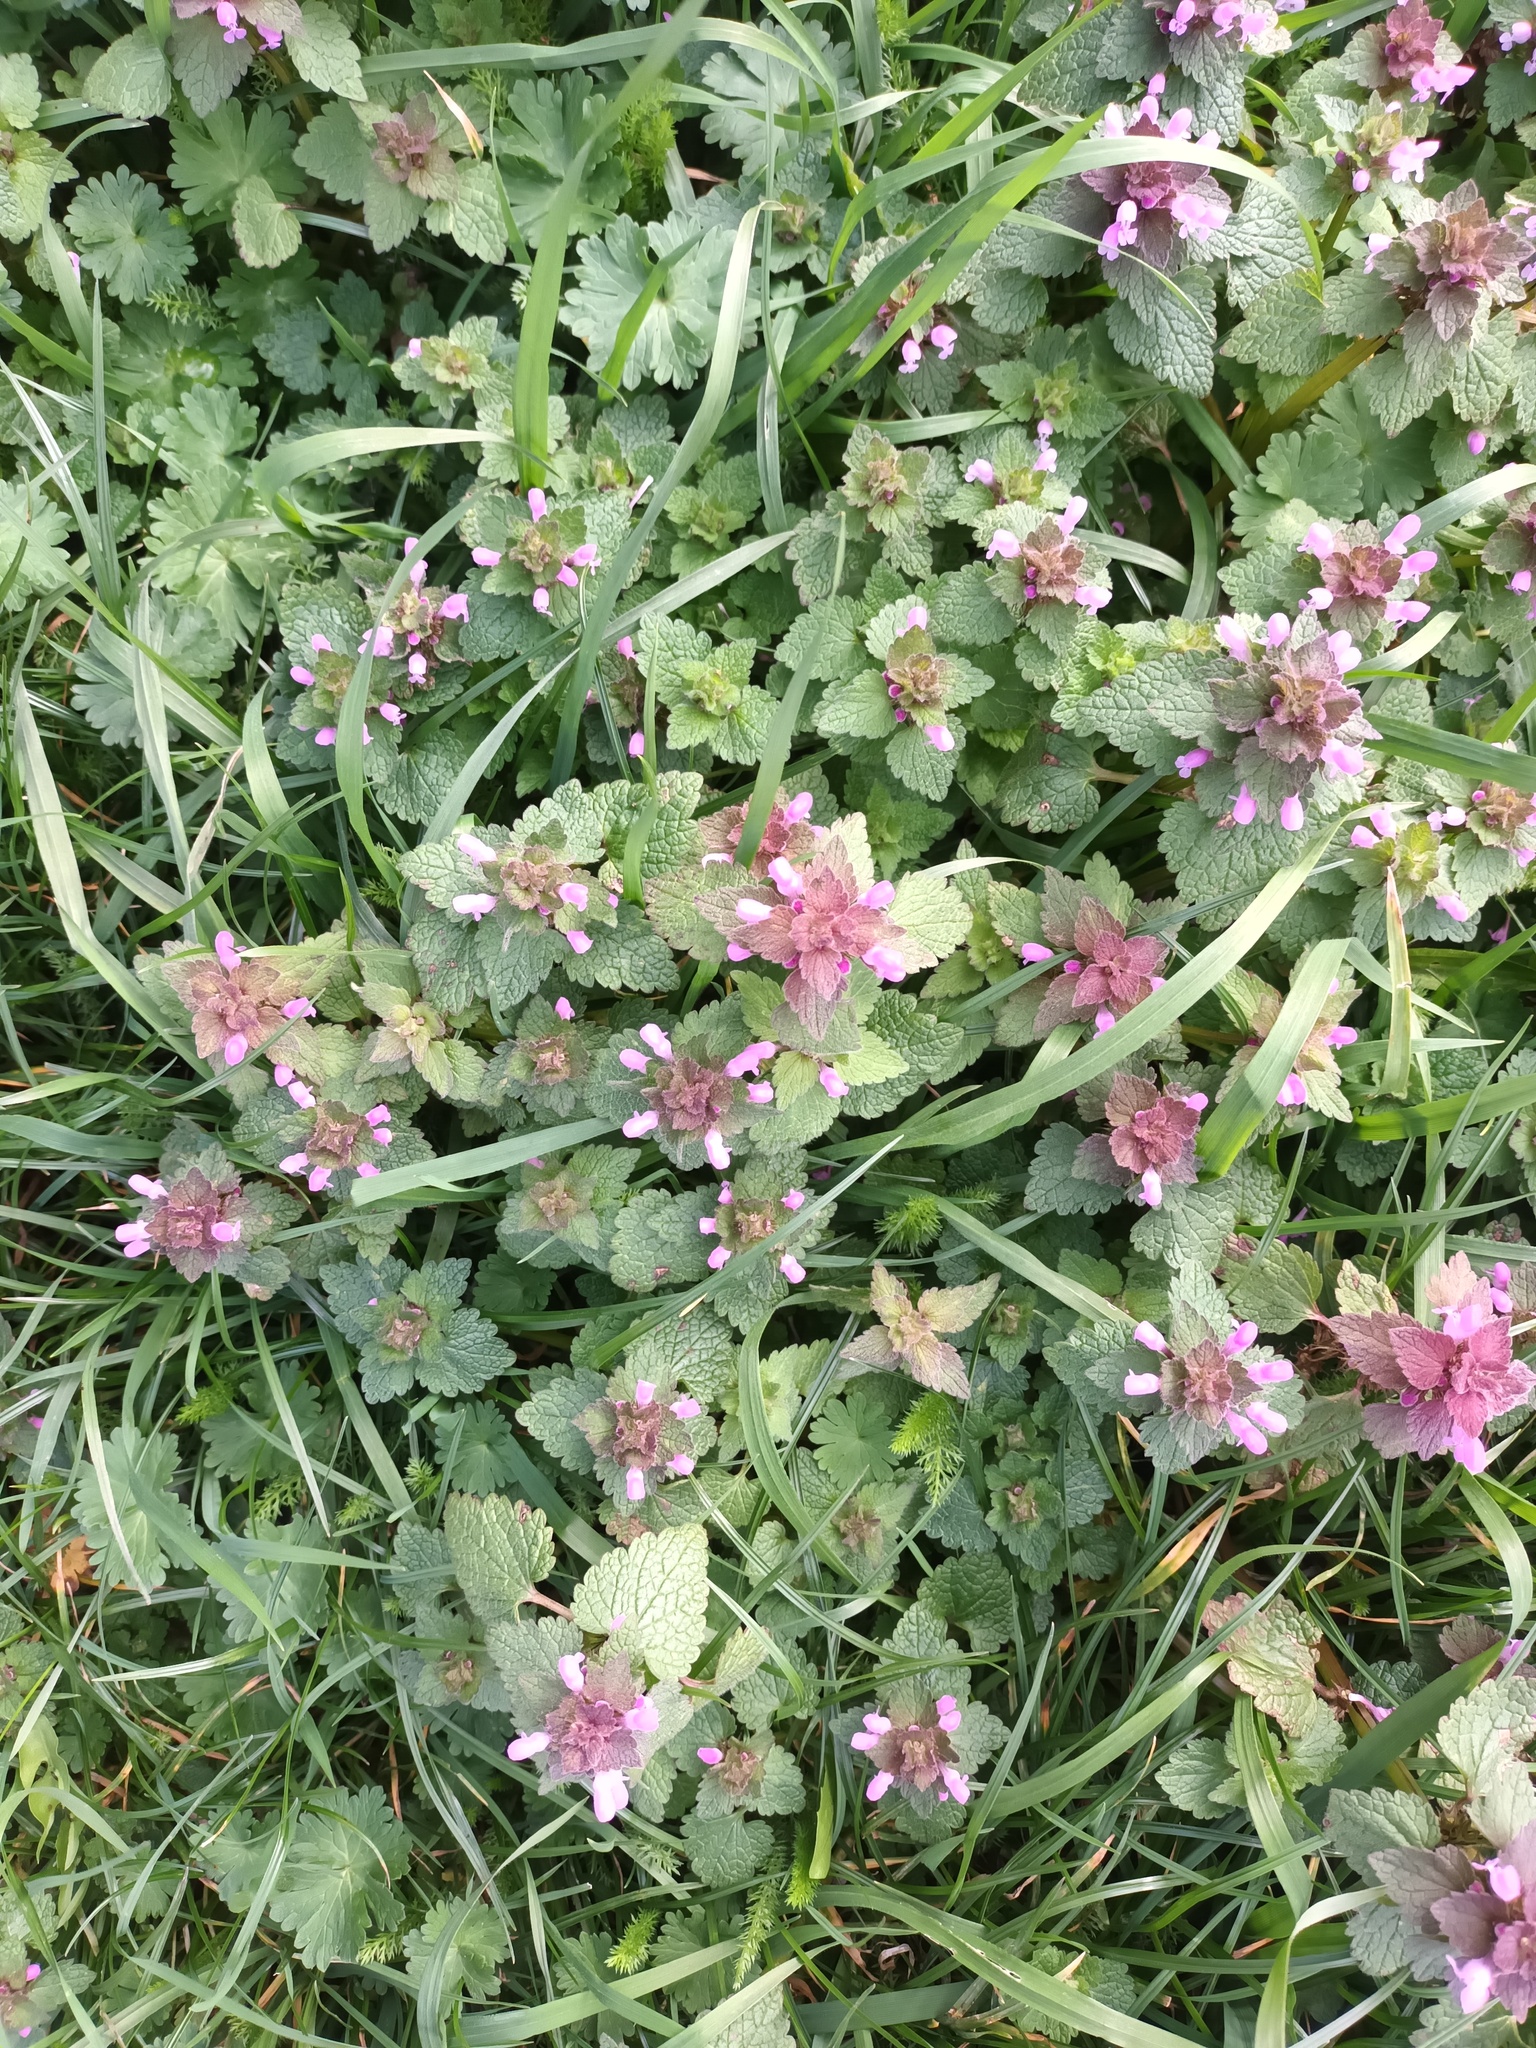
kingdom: Plantae
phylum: Tracheophyta
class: Magnoliopsida
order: Lamiales
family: Lamiaceae
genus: Lamium
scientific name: Lamium purpureum
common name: Red dead-nettle
